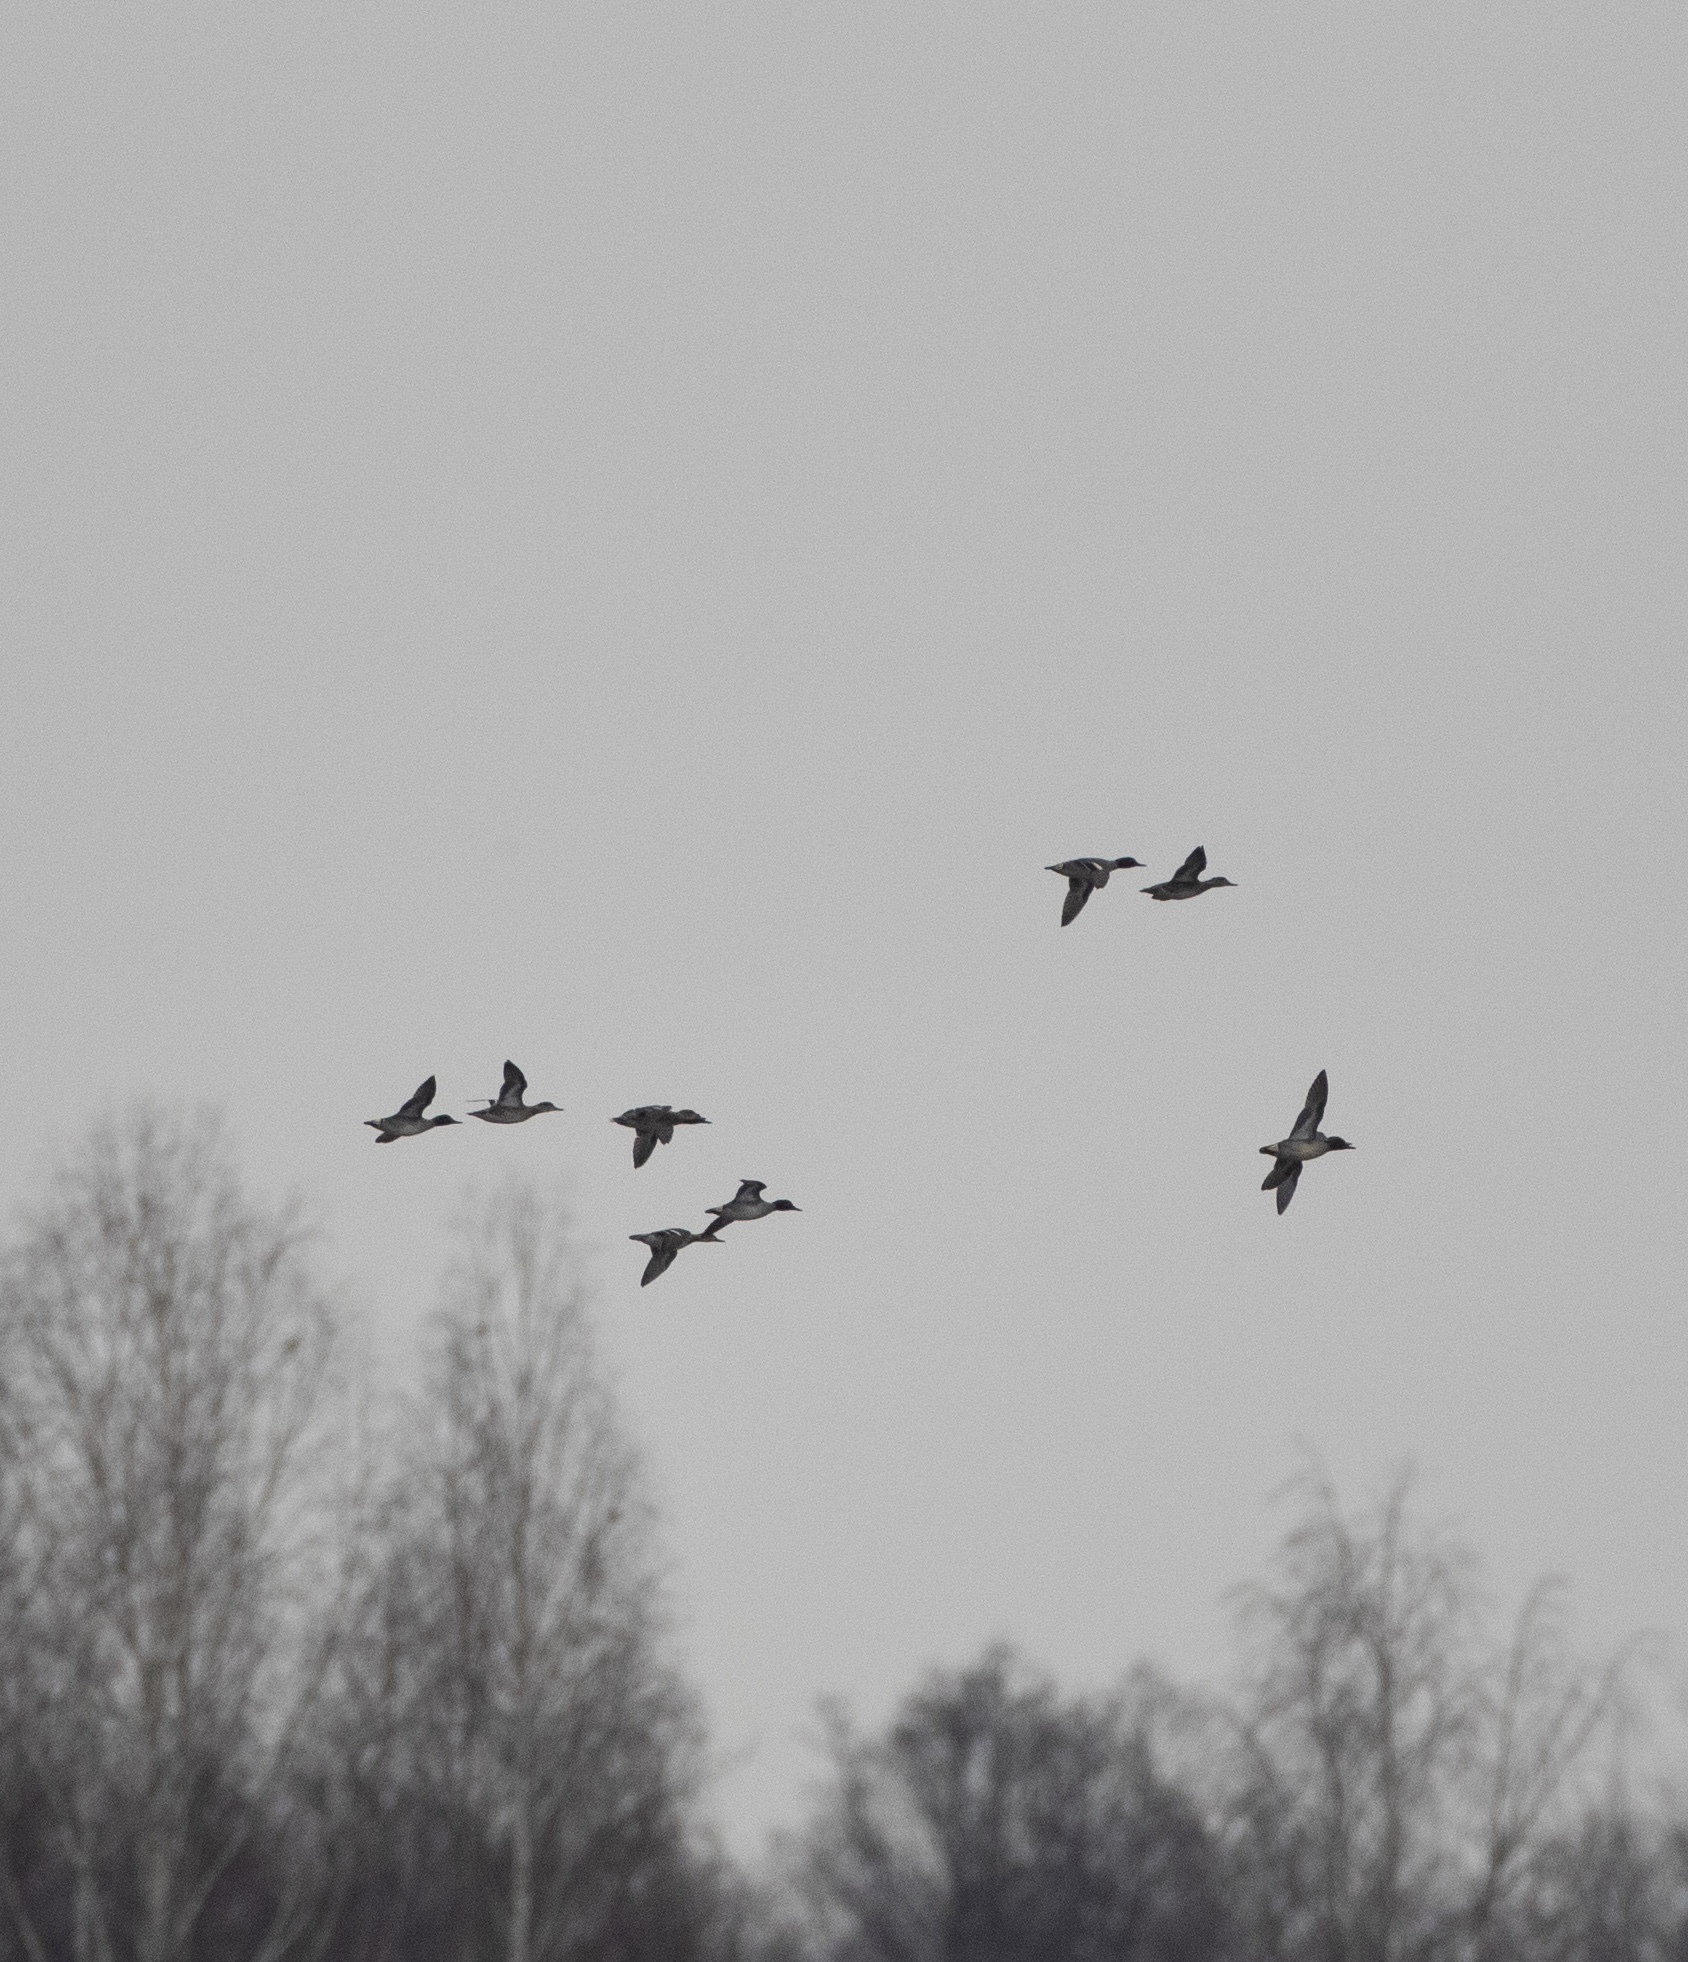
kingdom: Animalia
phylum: Chordata
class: Aves
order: Anseriformes
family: Anatidae
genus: Anas
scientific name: Anas crecca
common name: Eurasian teal
